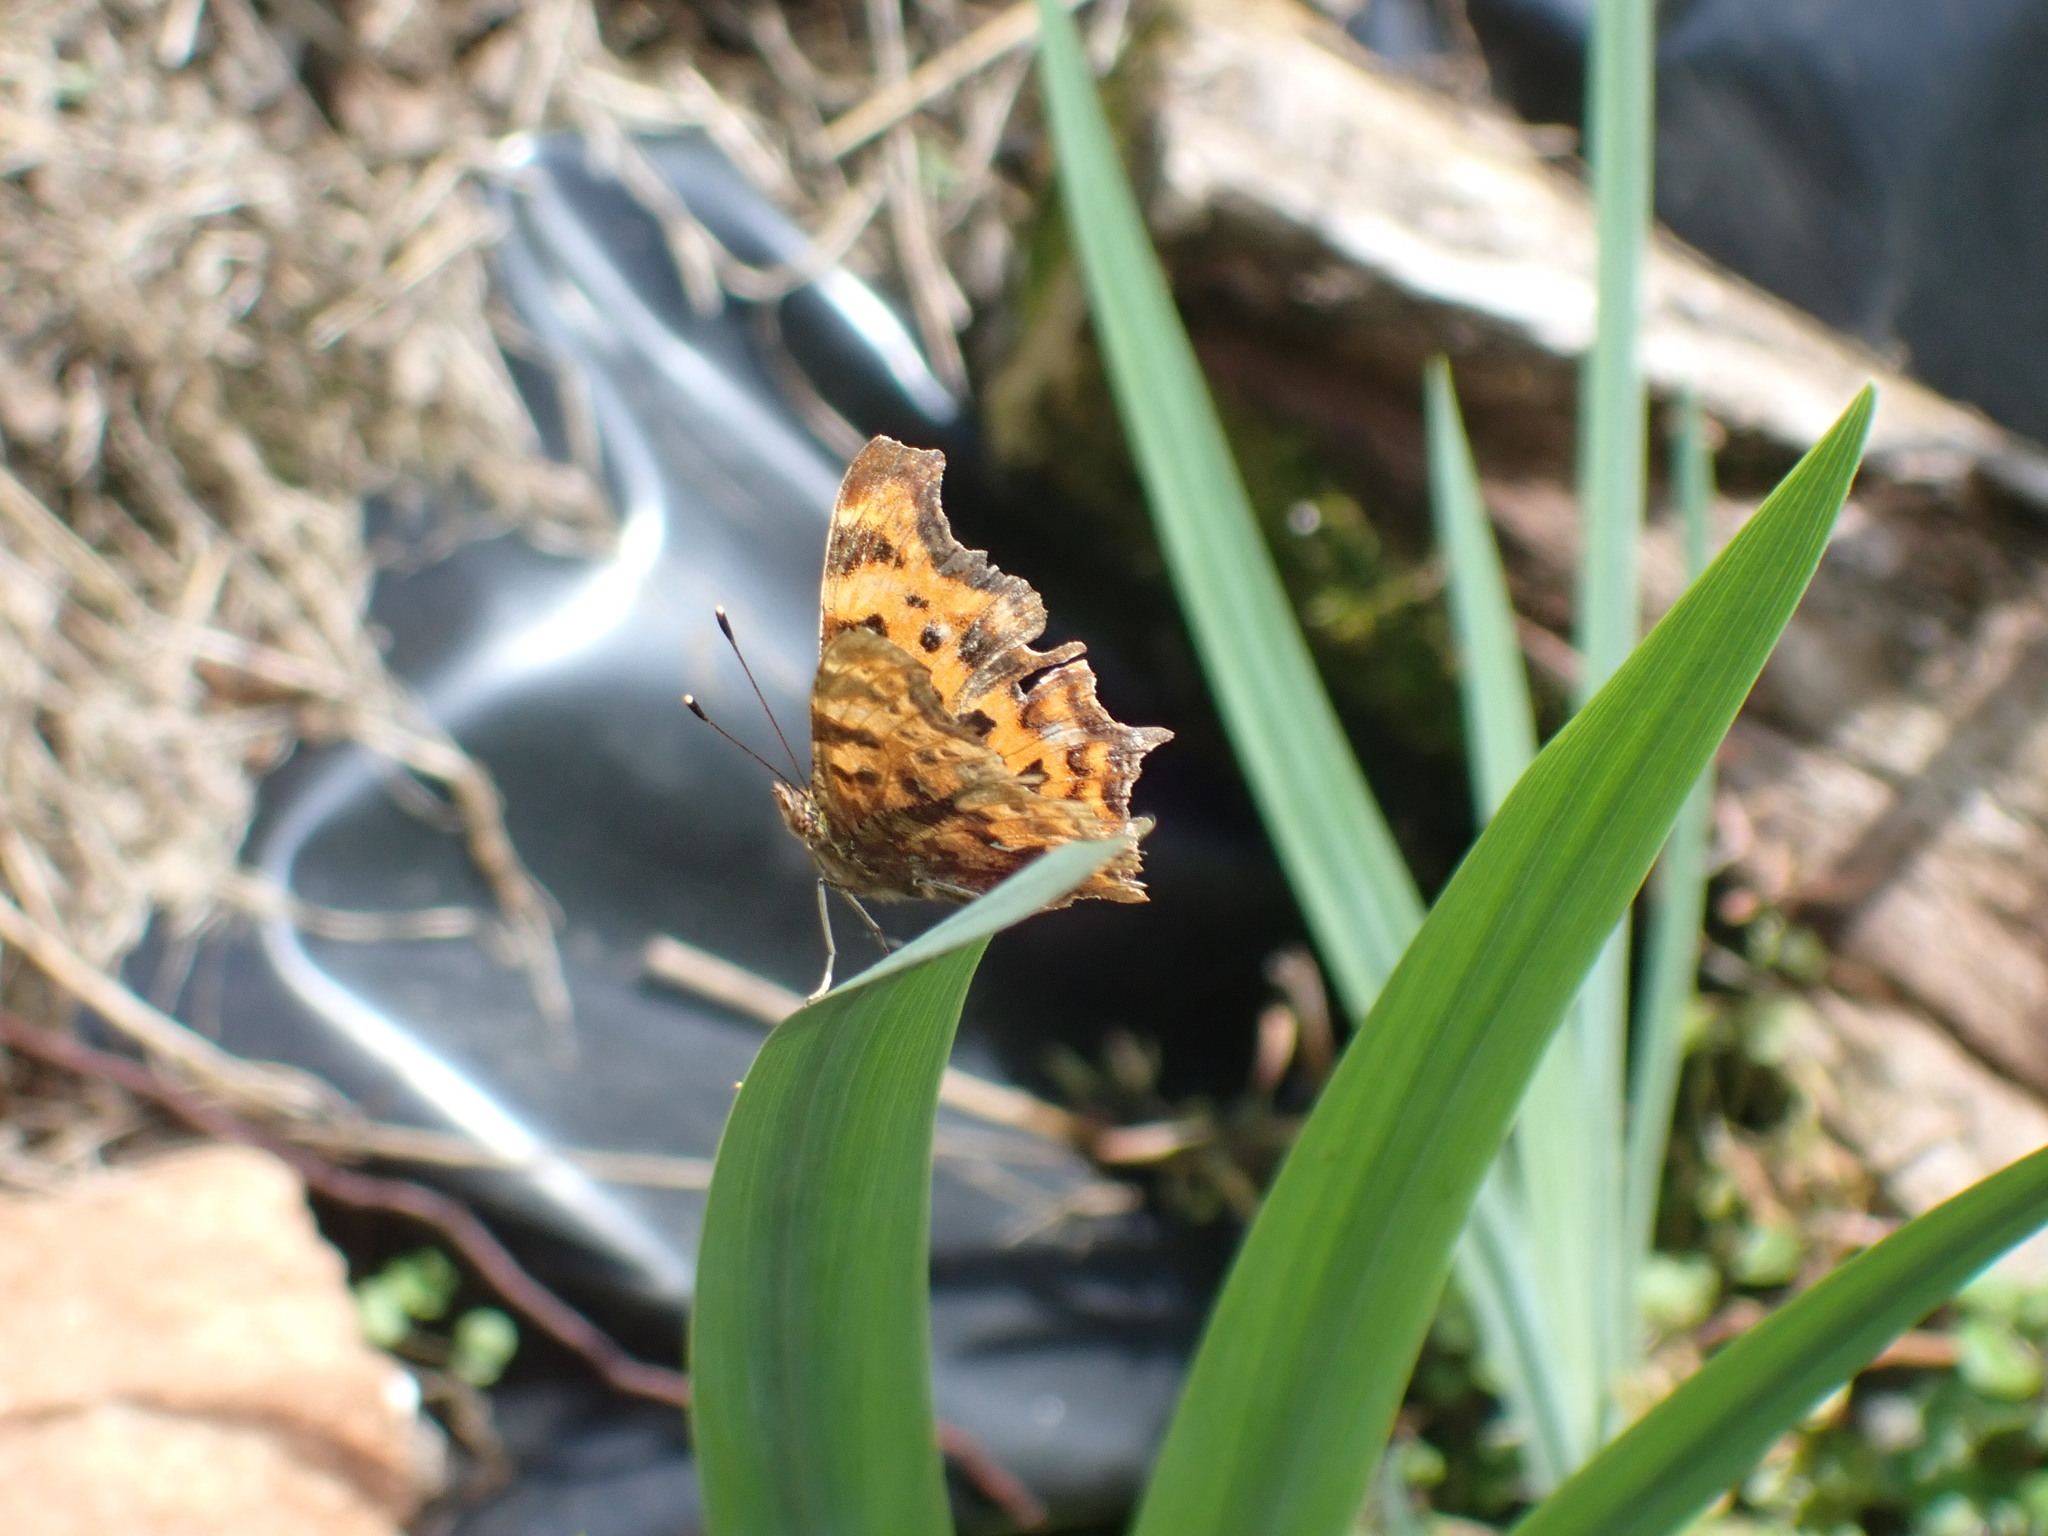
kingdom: Animalia
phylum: Arthropoda
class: Insecta
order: Lepidoptera
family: Nymphalidae
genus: Polygonia
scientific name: Polygonia c-album
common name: Comma
